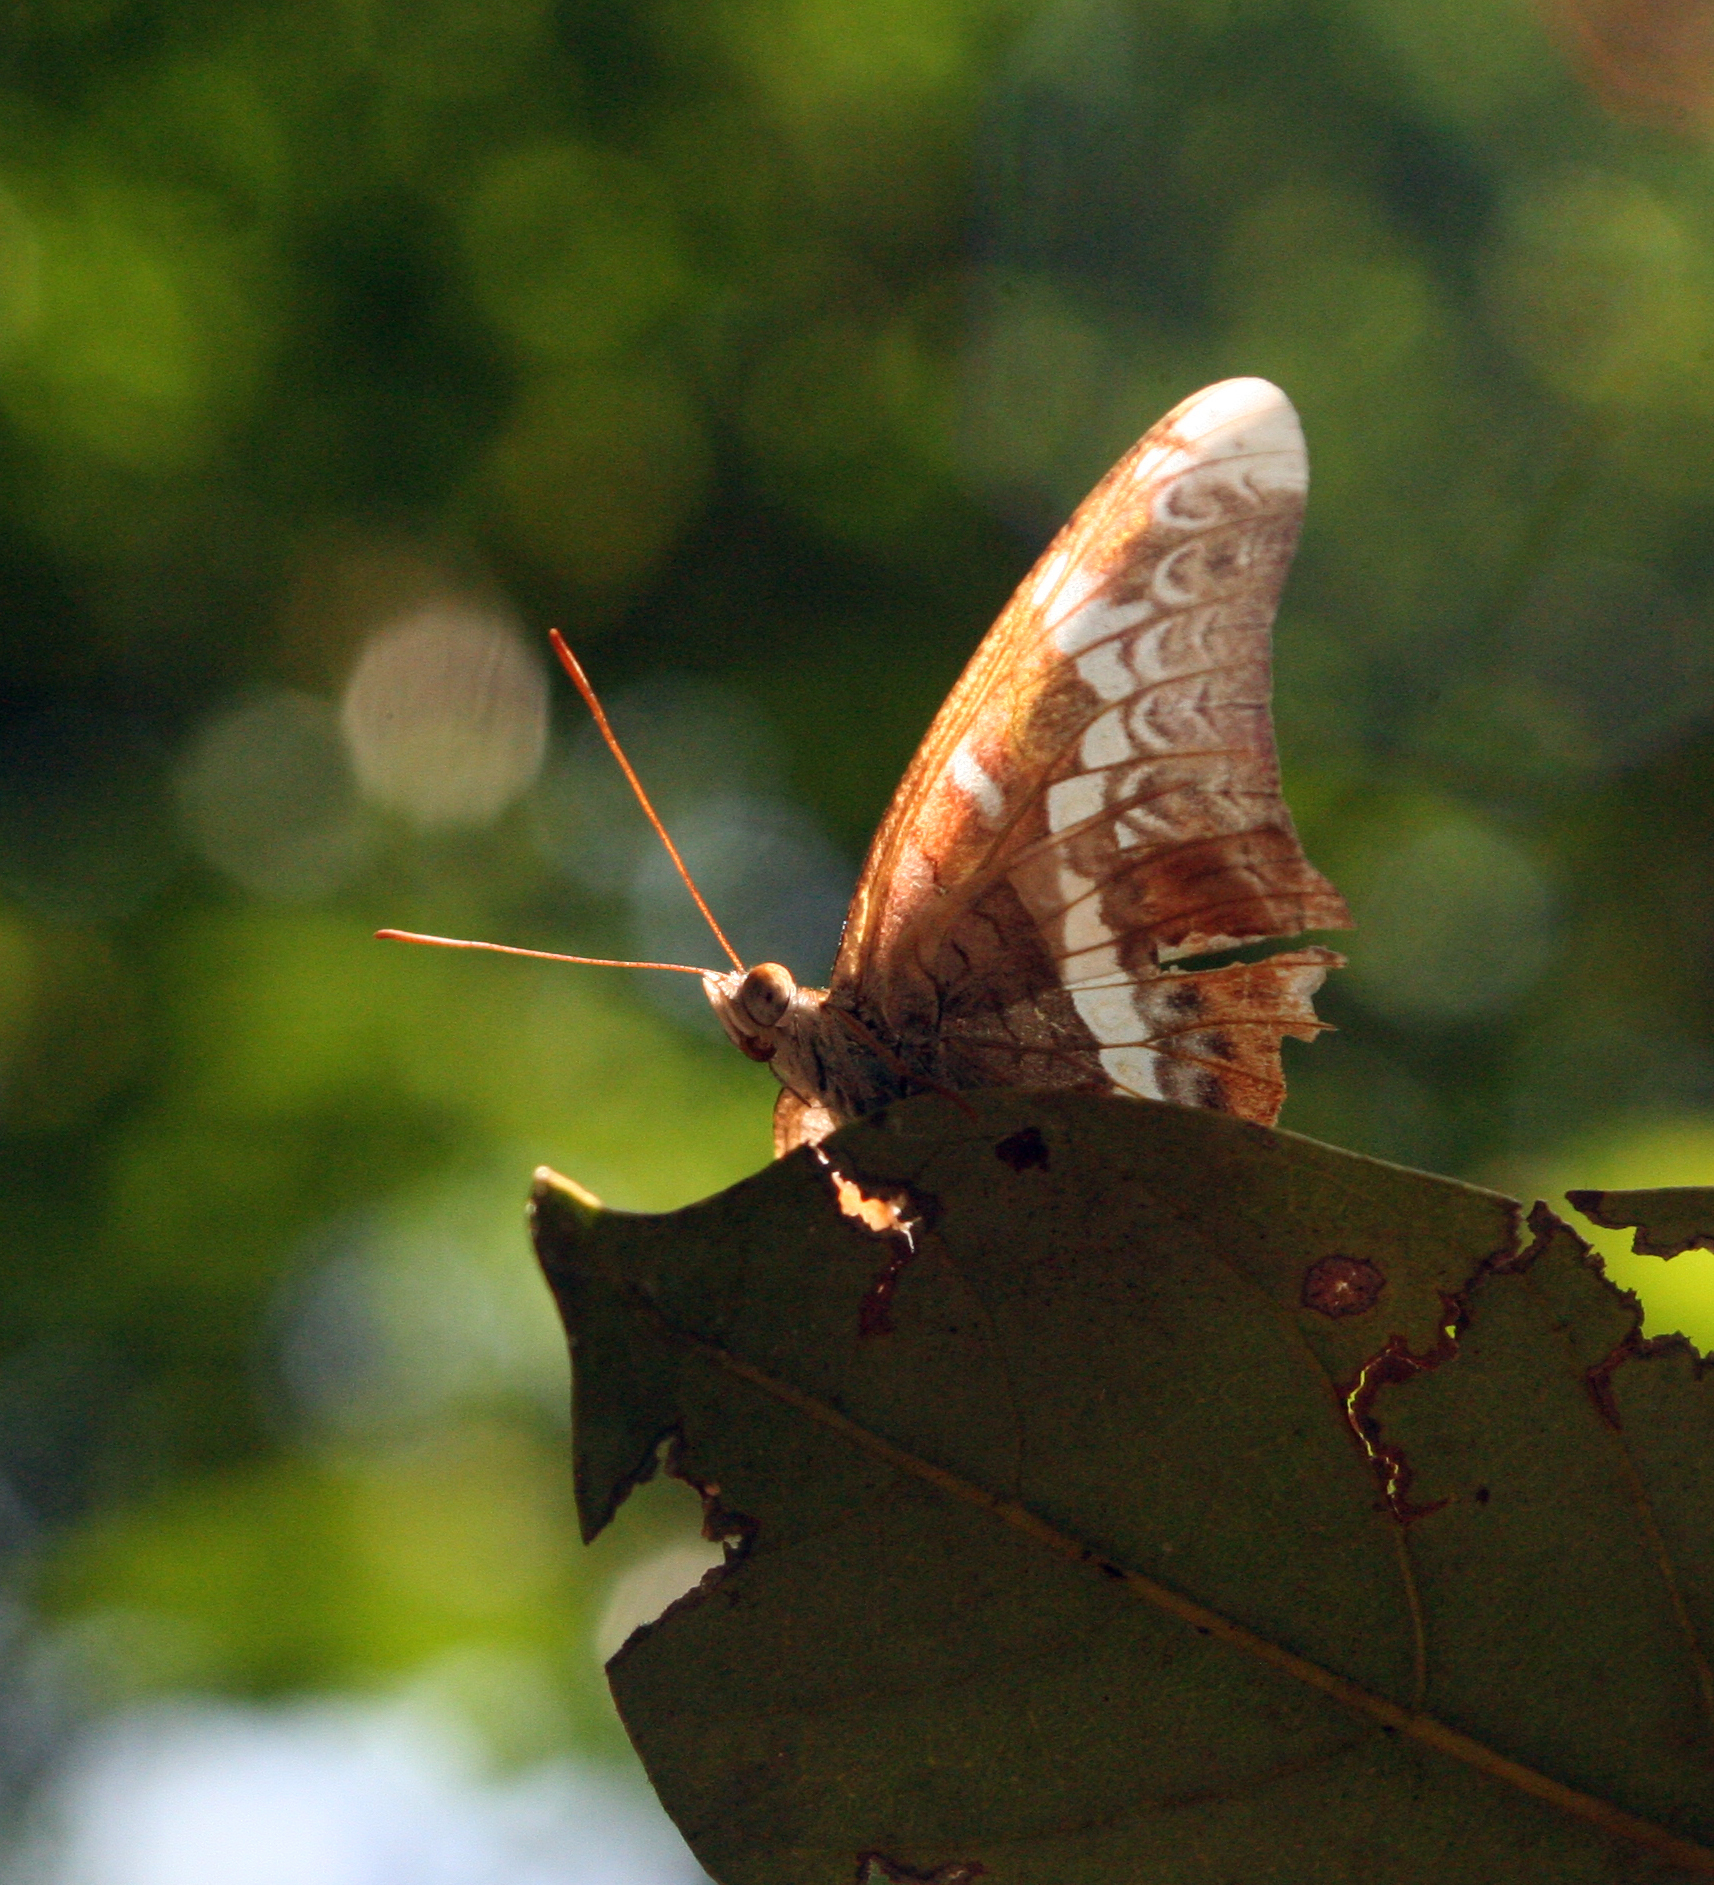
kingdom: Animalia
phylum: Arthropoda
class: Insecta
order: Lepidoptera
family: Nymphalidae
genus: Lebadea
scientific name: Lebadea martha
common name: Knight
